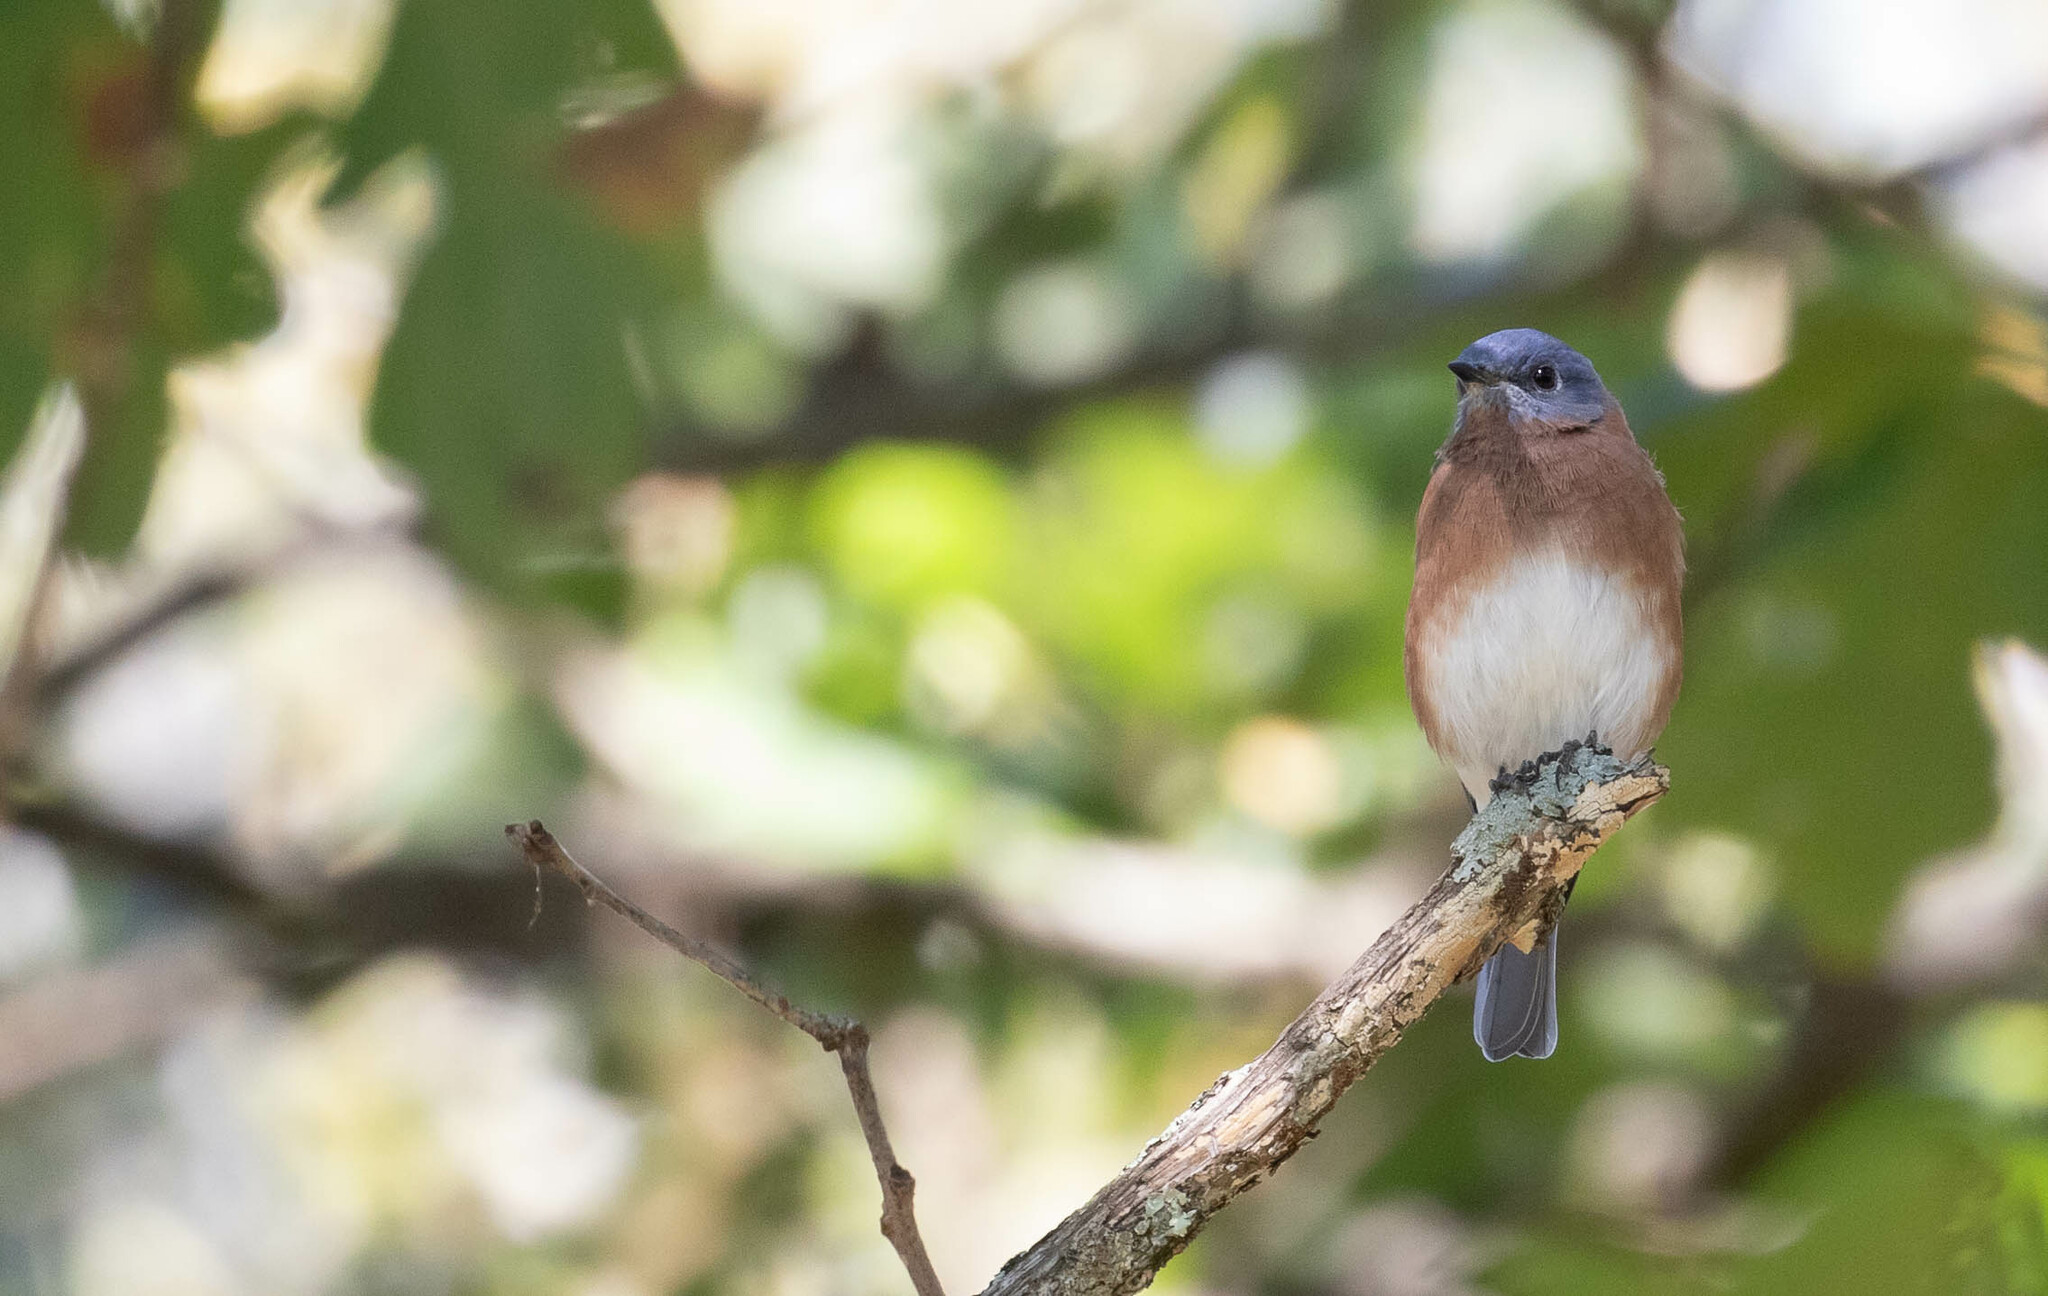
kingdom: Animalia
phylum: Chordata
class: Aves
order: Passeriformes
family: Turdidae
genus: Sialia
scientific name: Sialia sialis
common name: Eastern bluebird
